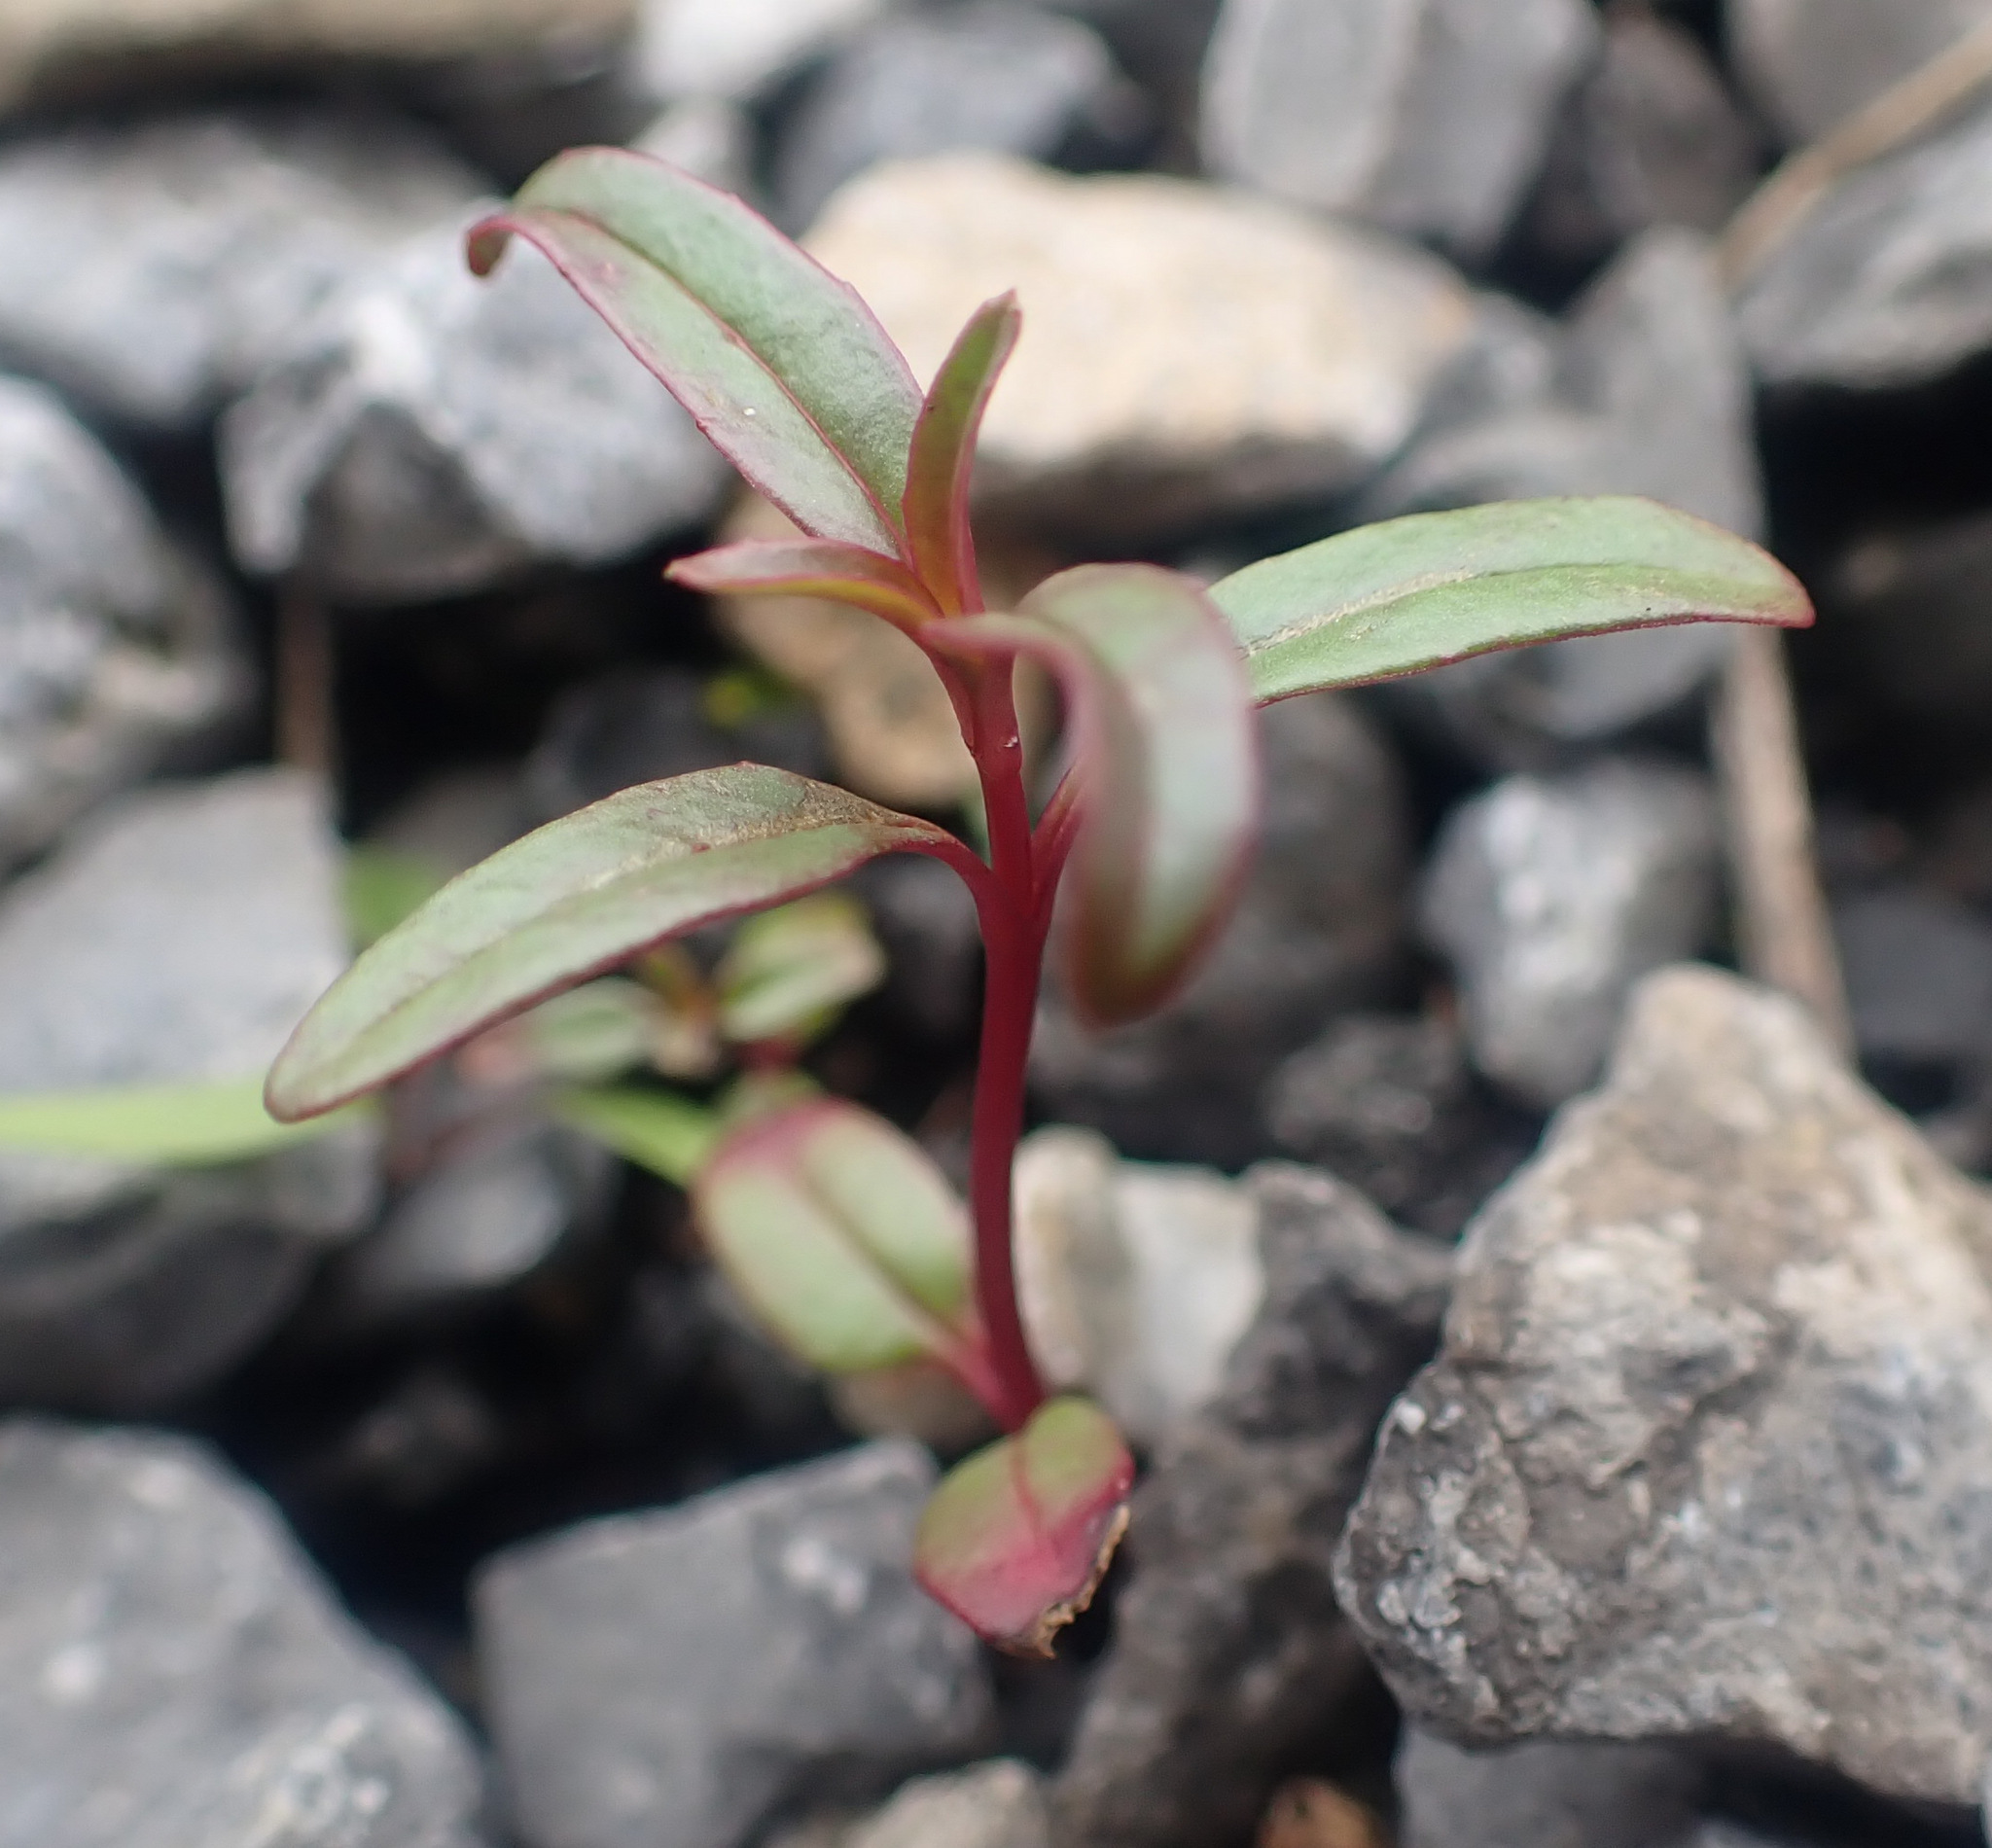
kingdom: Plantae
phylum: Tracheophyta
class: Magnoliopsida
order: Myrtales
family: Onagraceae
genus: Epilobium
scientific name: Epilobium brachycarpum
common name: Annual willowherb
